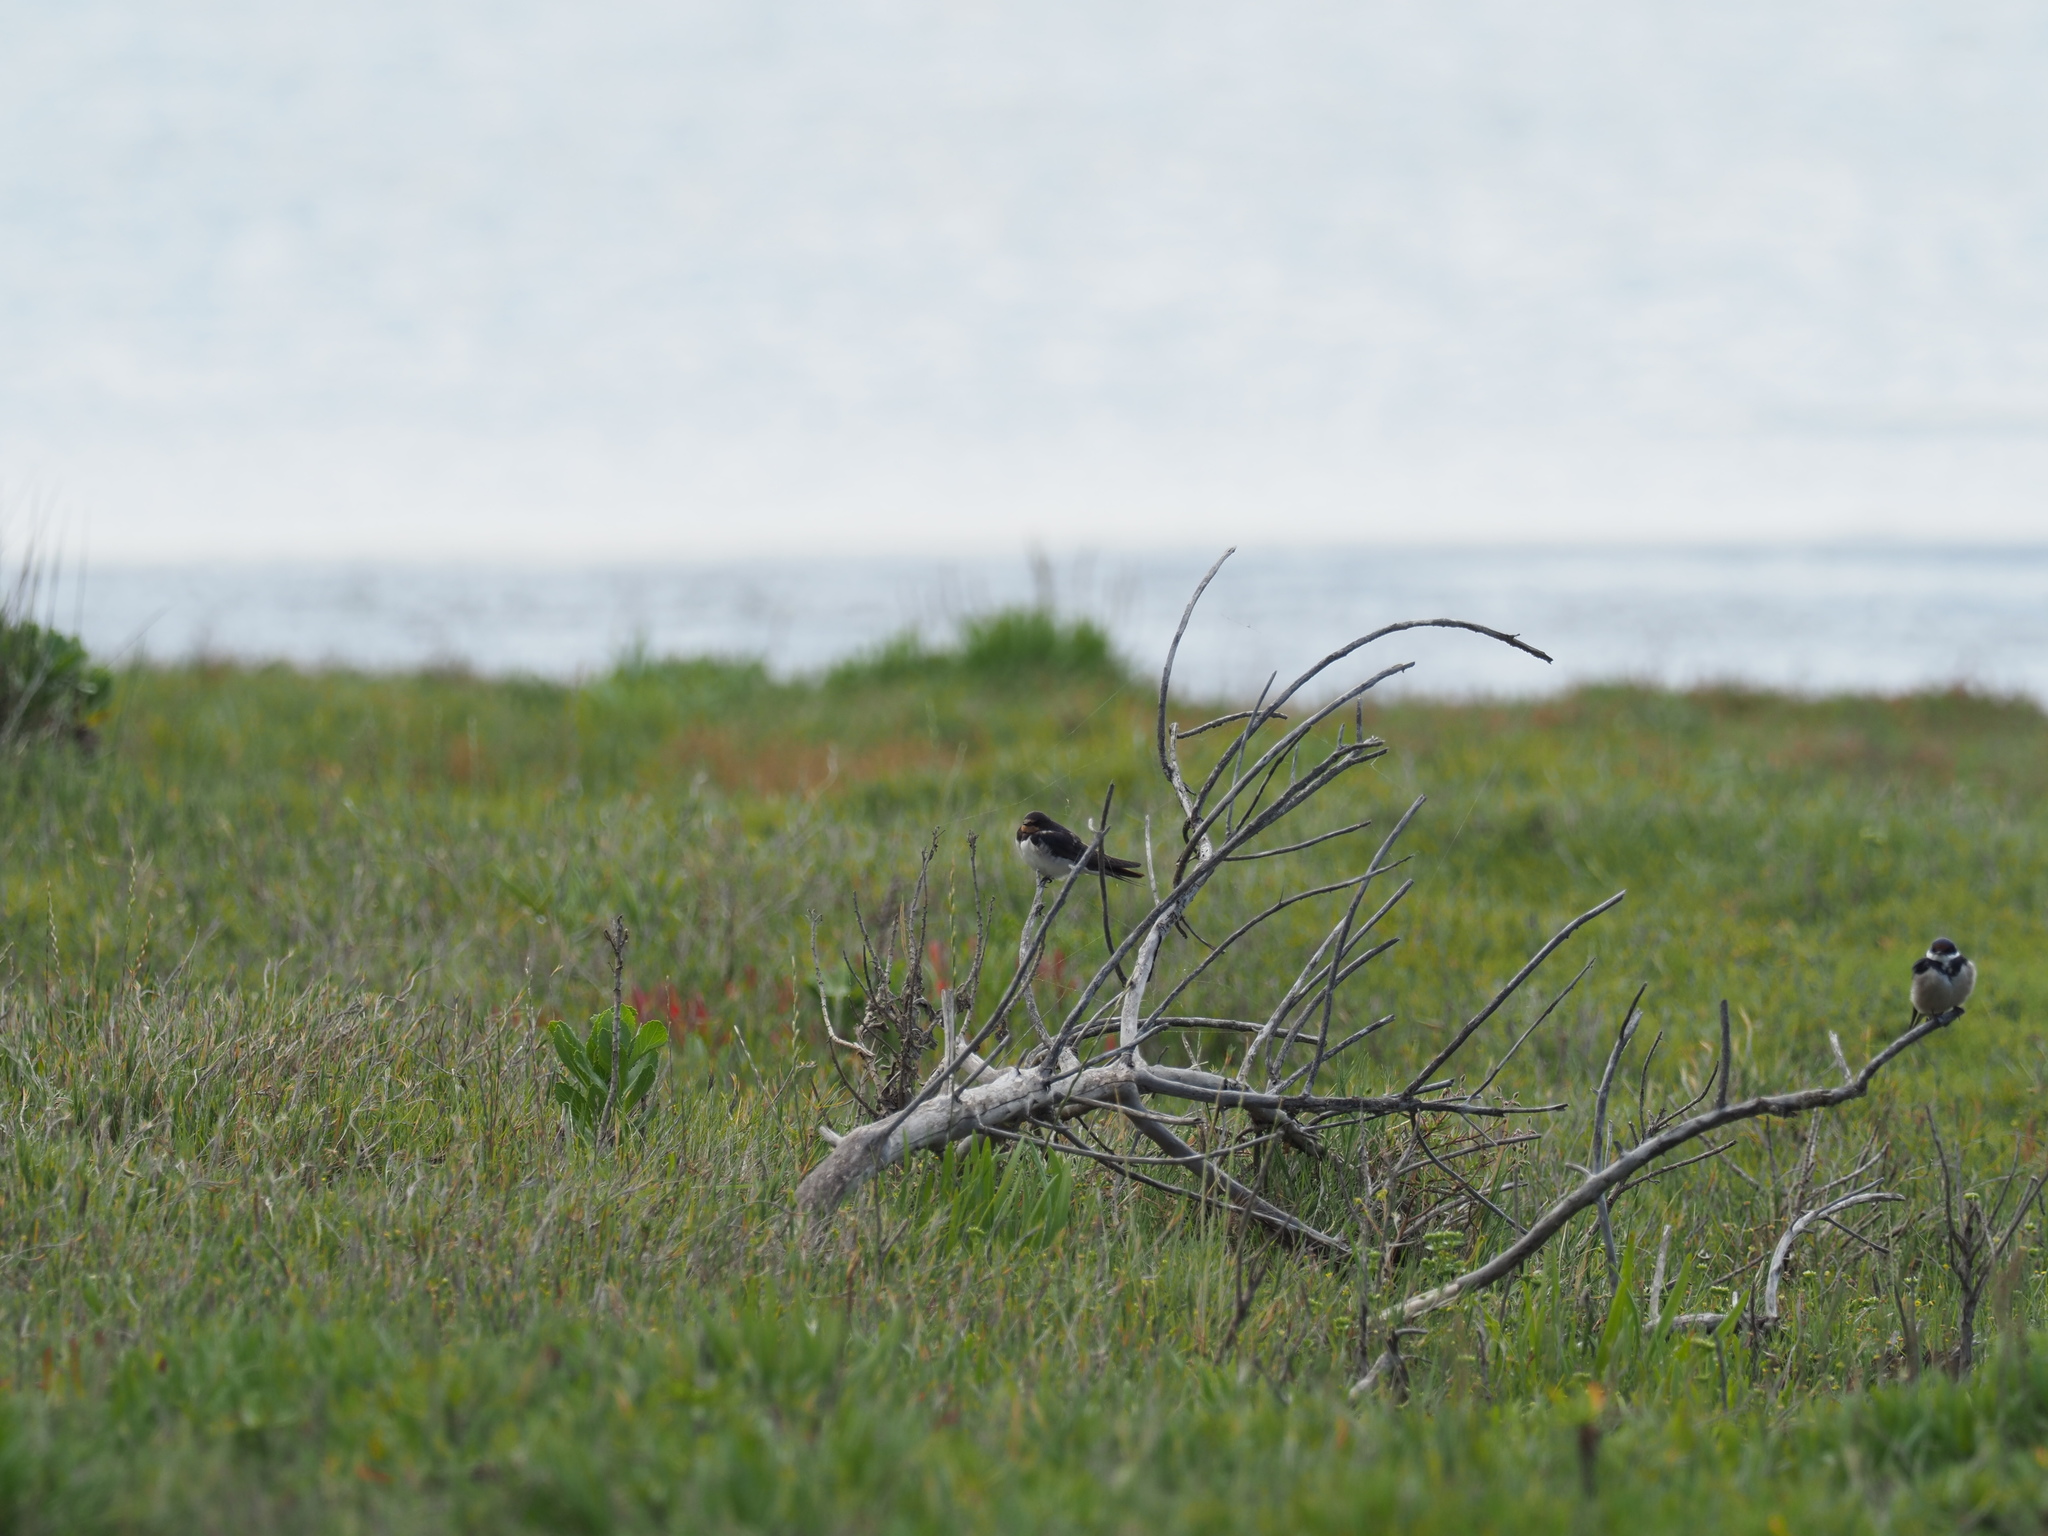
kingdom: Animalia
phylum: Chordata
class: Aves
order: Passeriformes
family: Hirundinidae
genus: Hirundo
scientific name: Hirundo rustica
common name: Barn swallow
